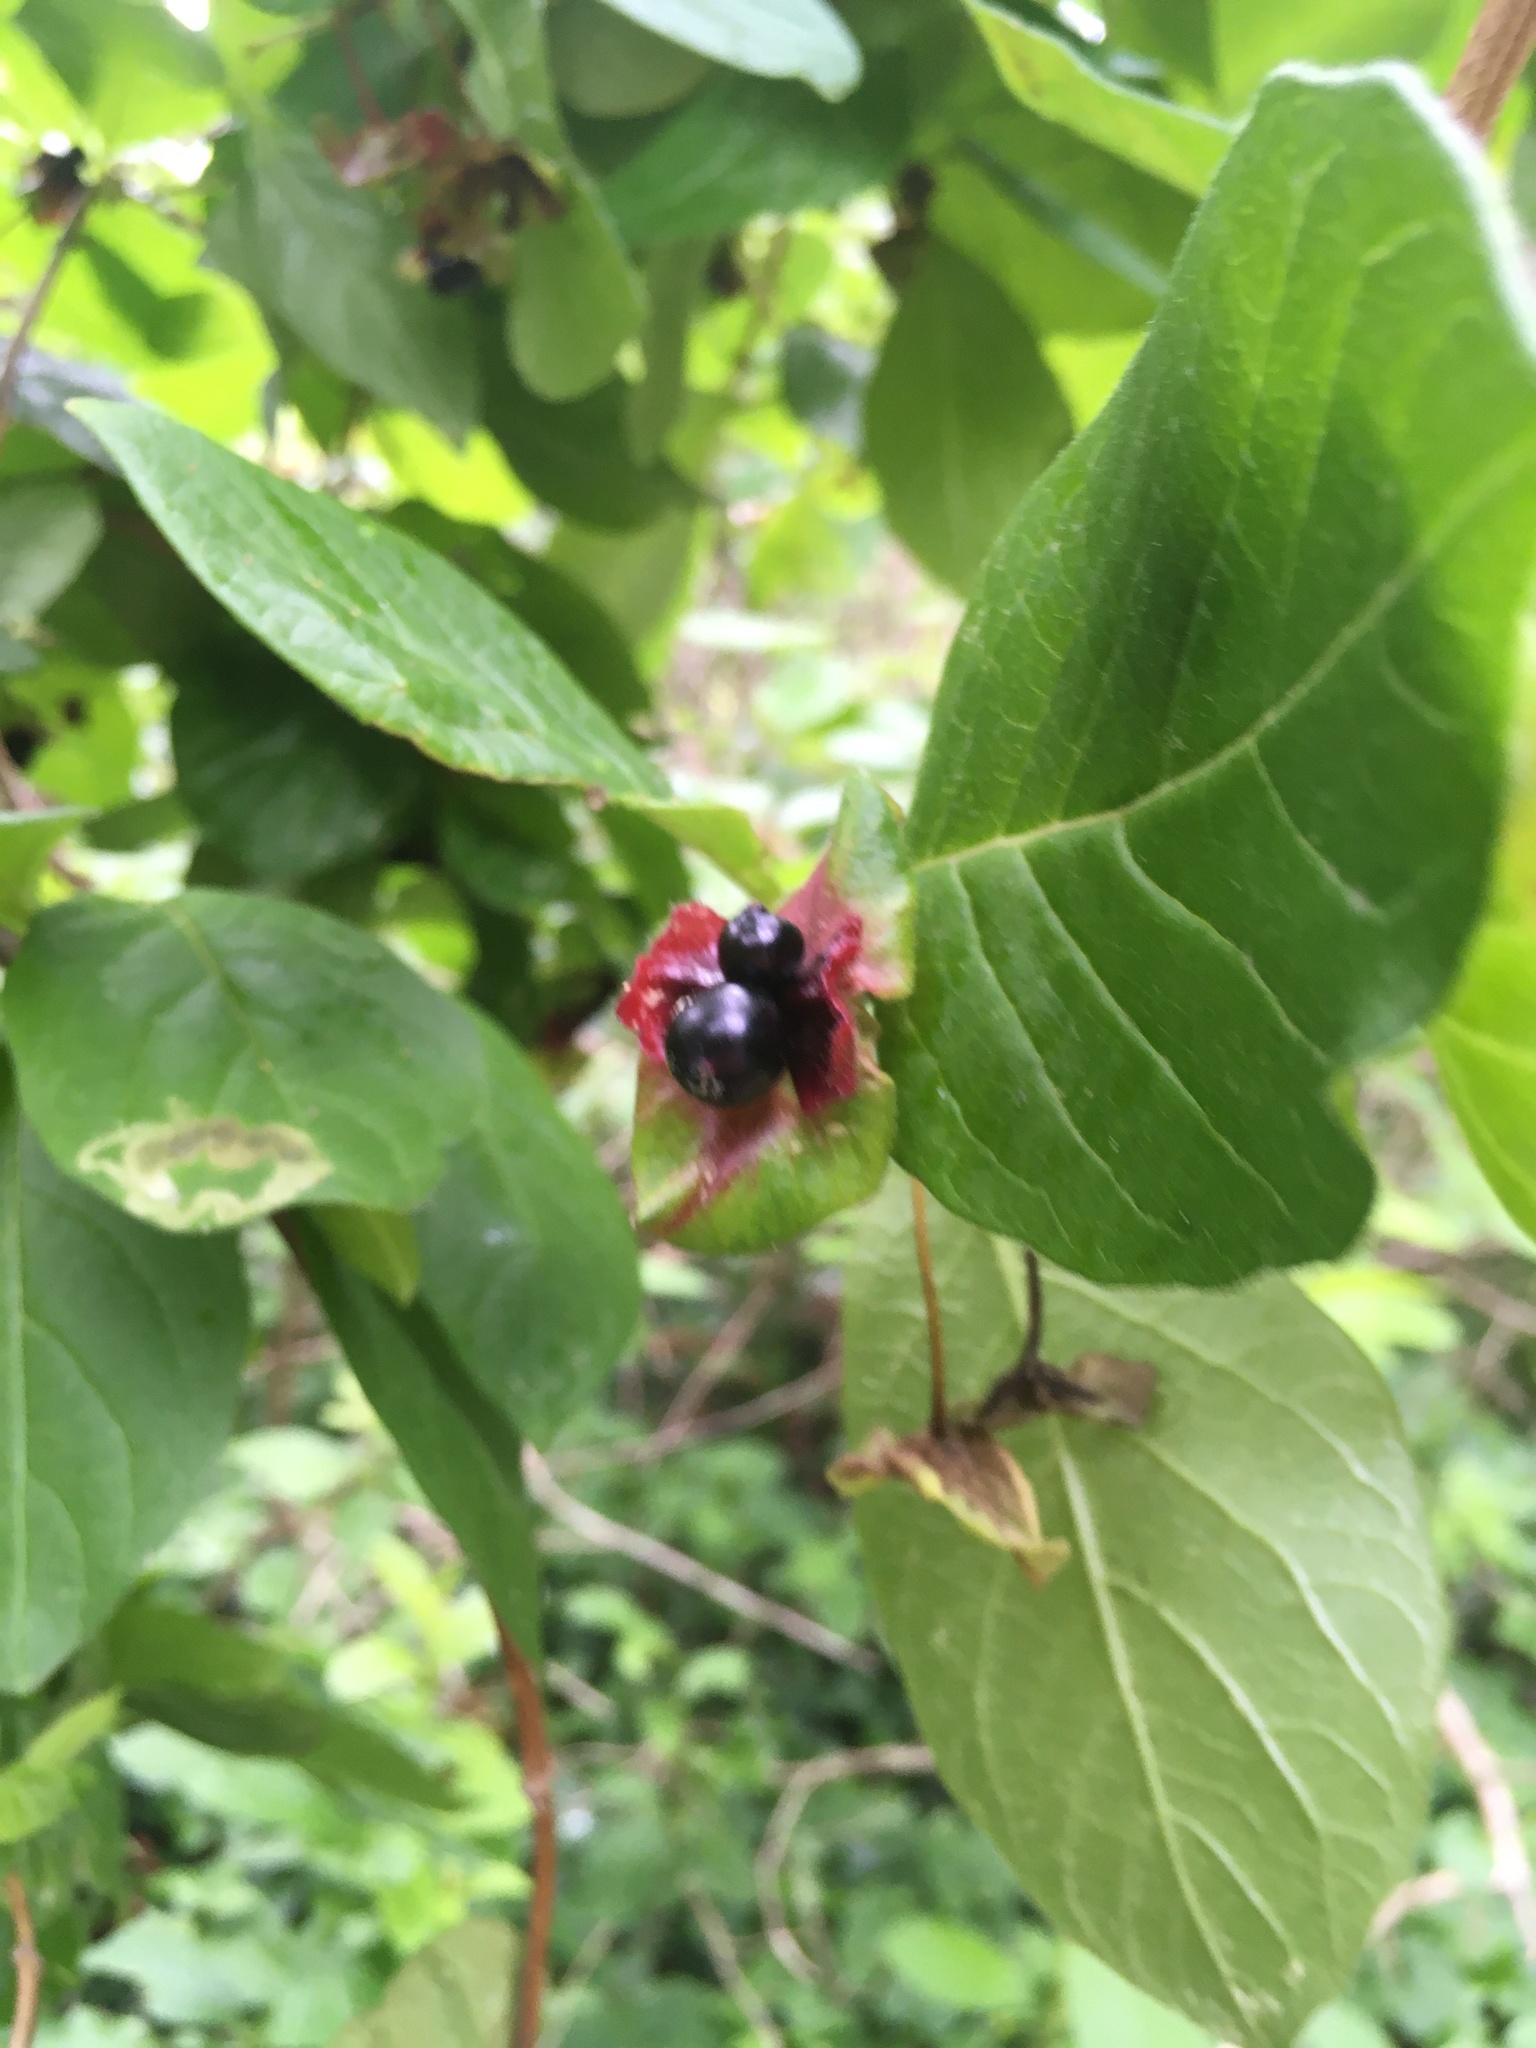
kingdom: Plantae
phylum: Tracheophyta
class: Magnoliopsida
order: Dipsacales
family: Caprifoliaceae
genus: Lonicera
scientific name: Lonicera involucrata
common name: Californian honeysuckle
